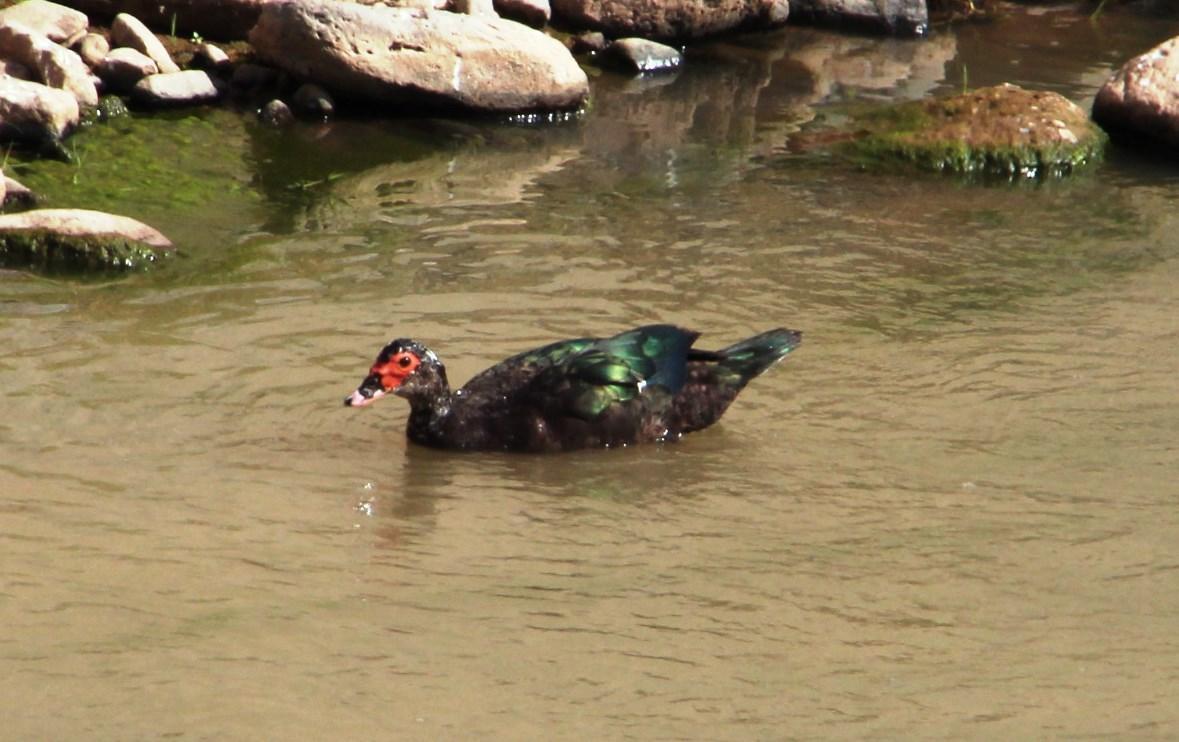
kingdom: Animalia
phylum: Chordata
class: Aves
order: Anseriformes
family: Anatidae
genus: Cairina
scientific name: Cairina moschata
